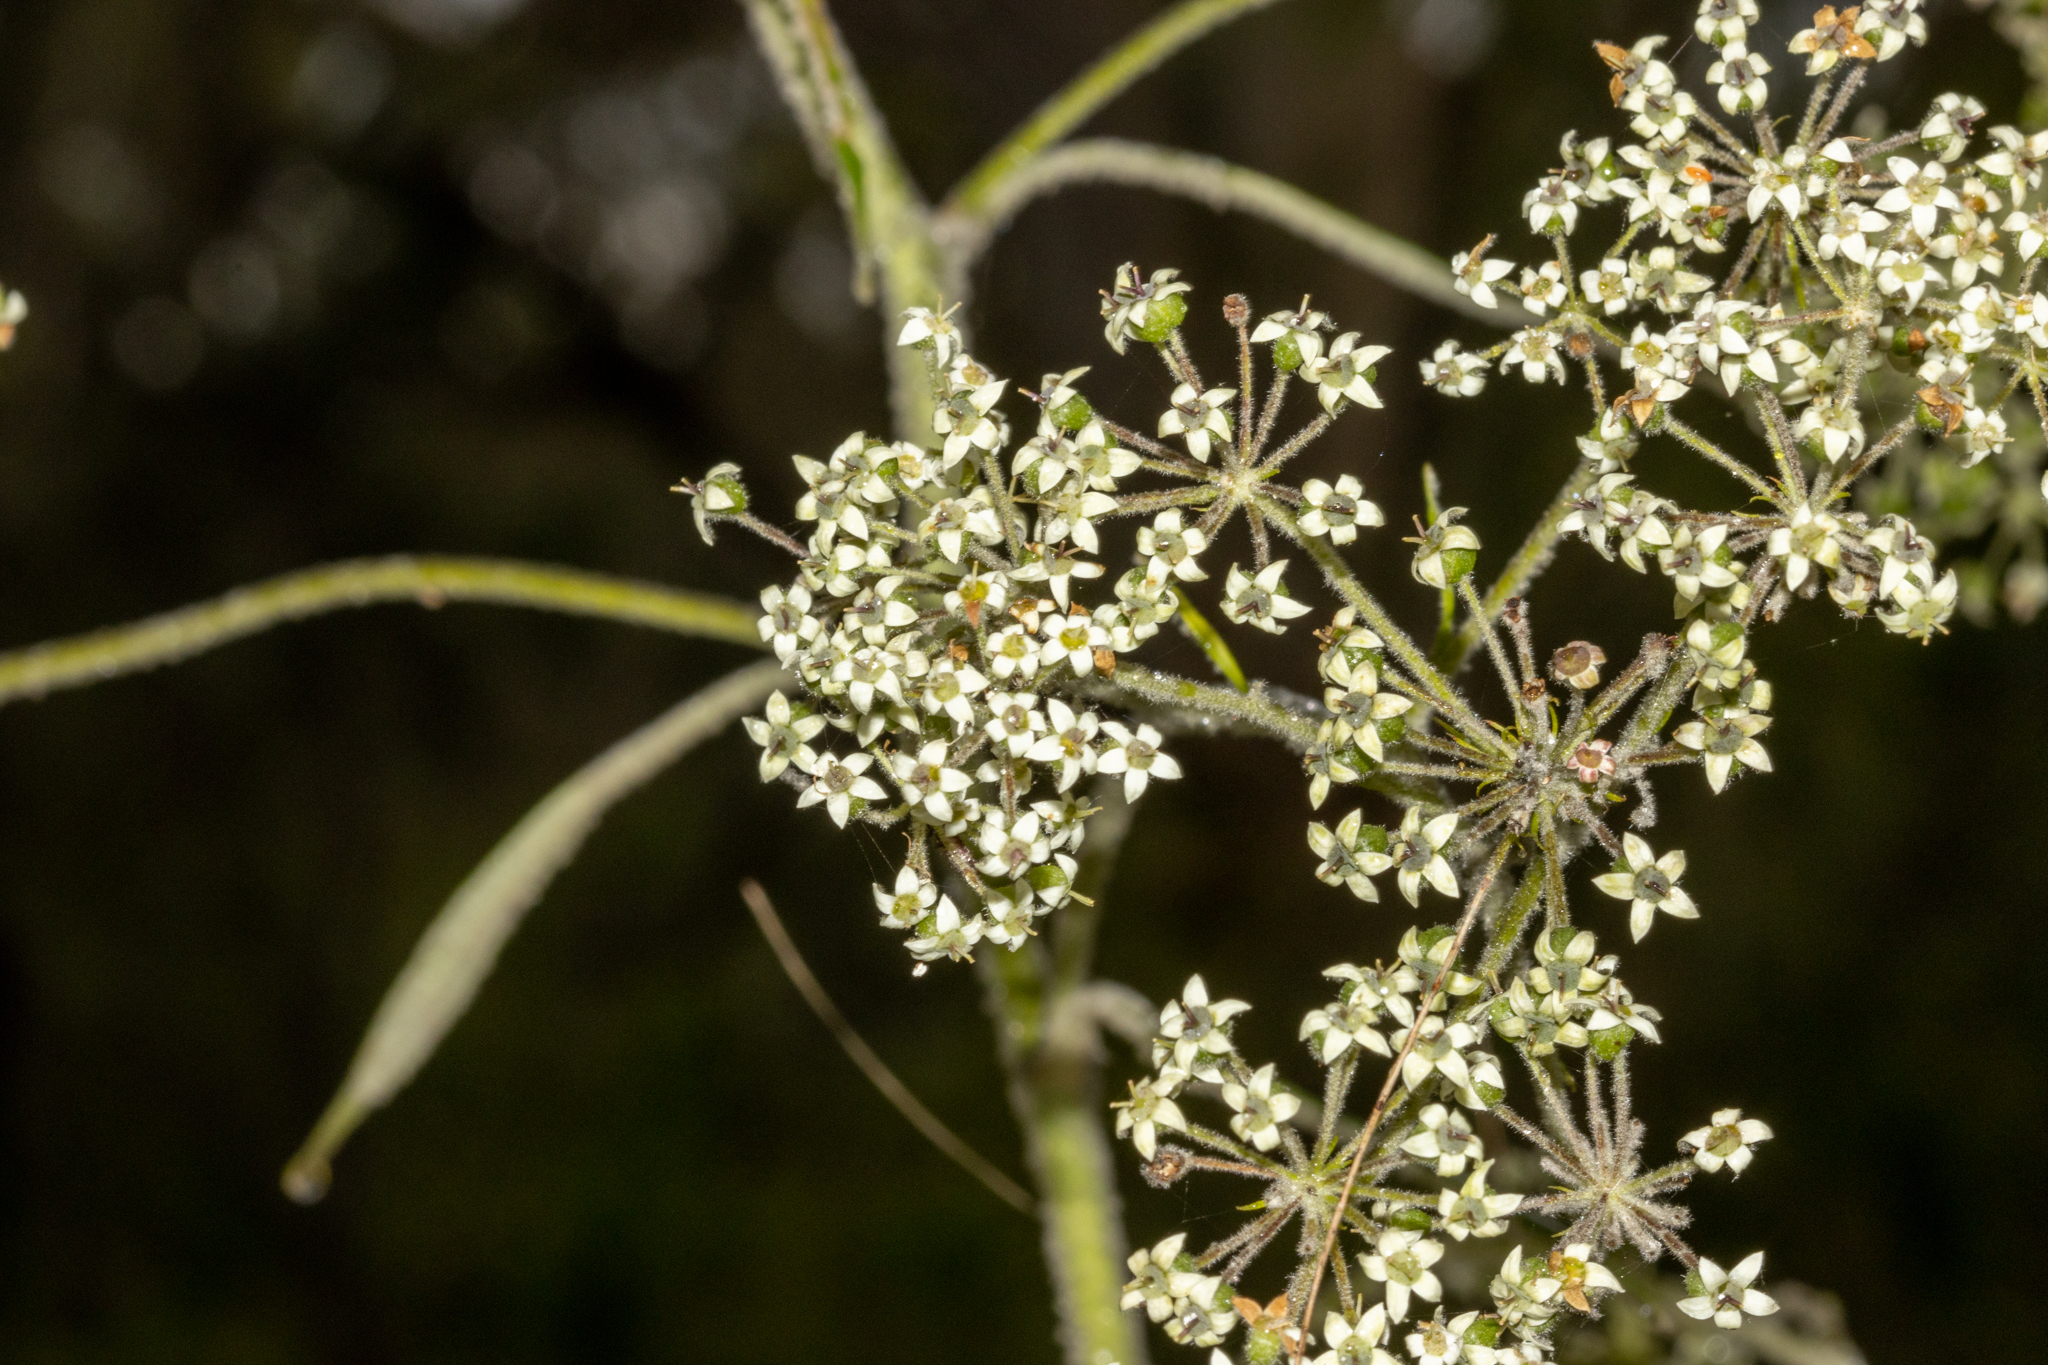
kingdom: Plantae
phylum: Tracheophyta
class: Magnoliopsida
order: Apiales
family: Araliaceae
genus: Astrotricha
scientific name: Astrotricha floccosa
